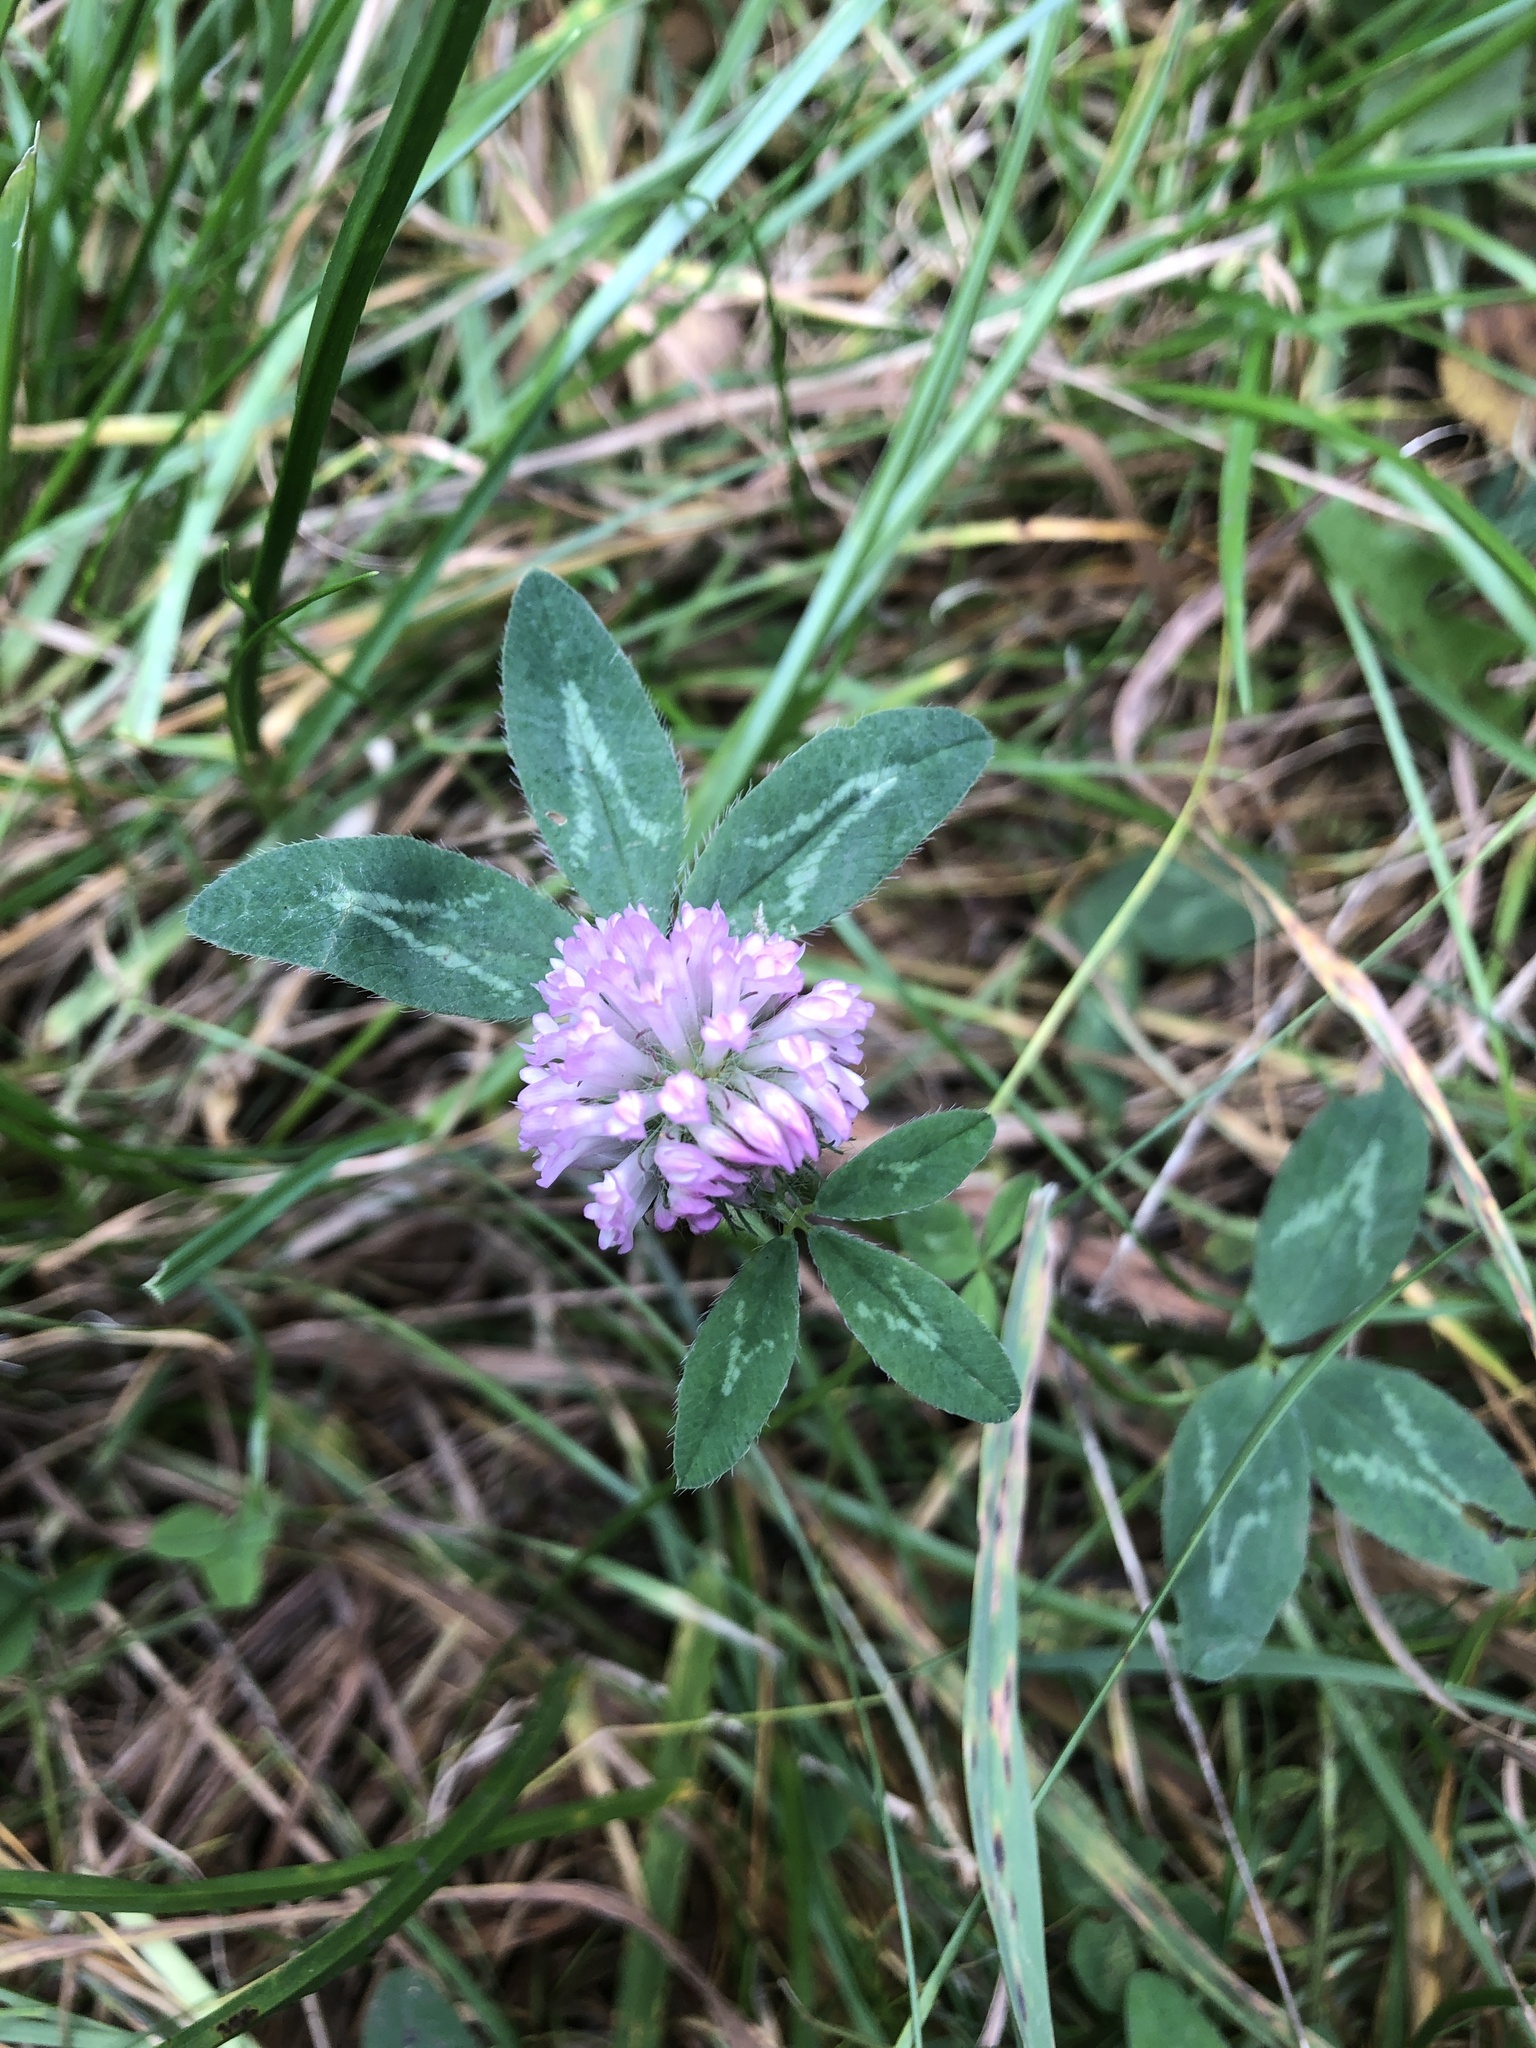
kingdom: Plantae
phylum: Tracheophyta
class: Magnoliopsida
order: Fabales
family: Fabaceae
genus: Trifolium
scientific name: Trifolium pratense
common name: Red clover
